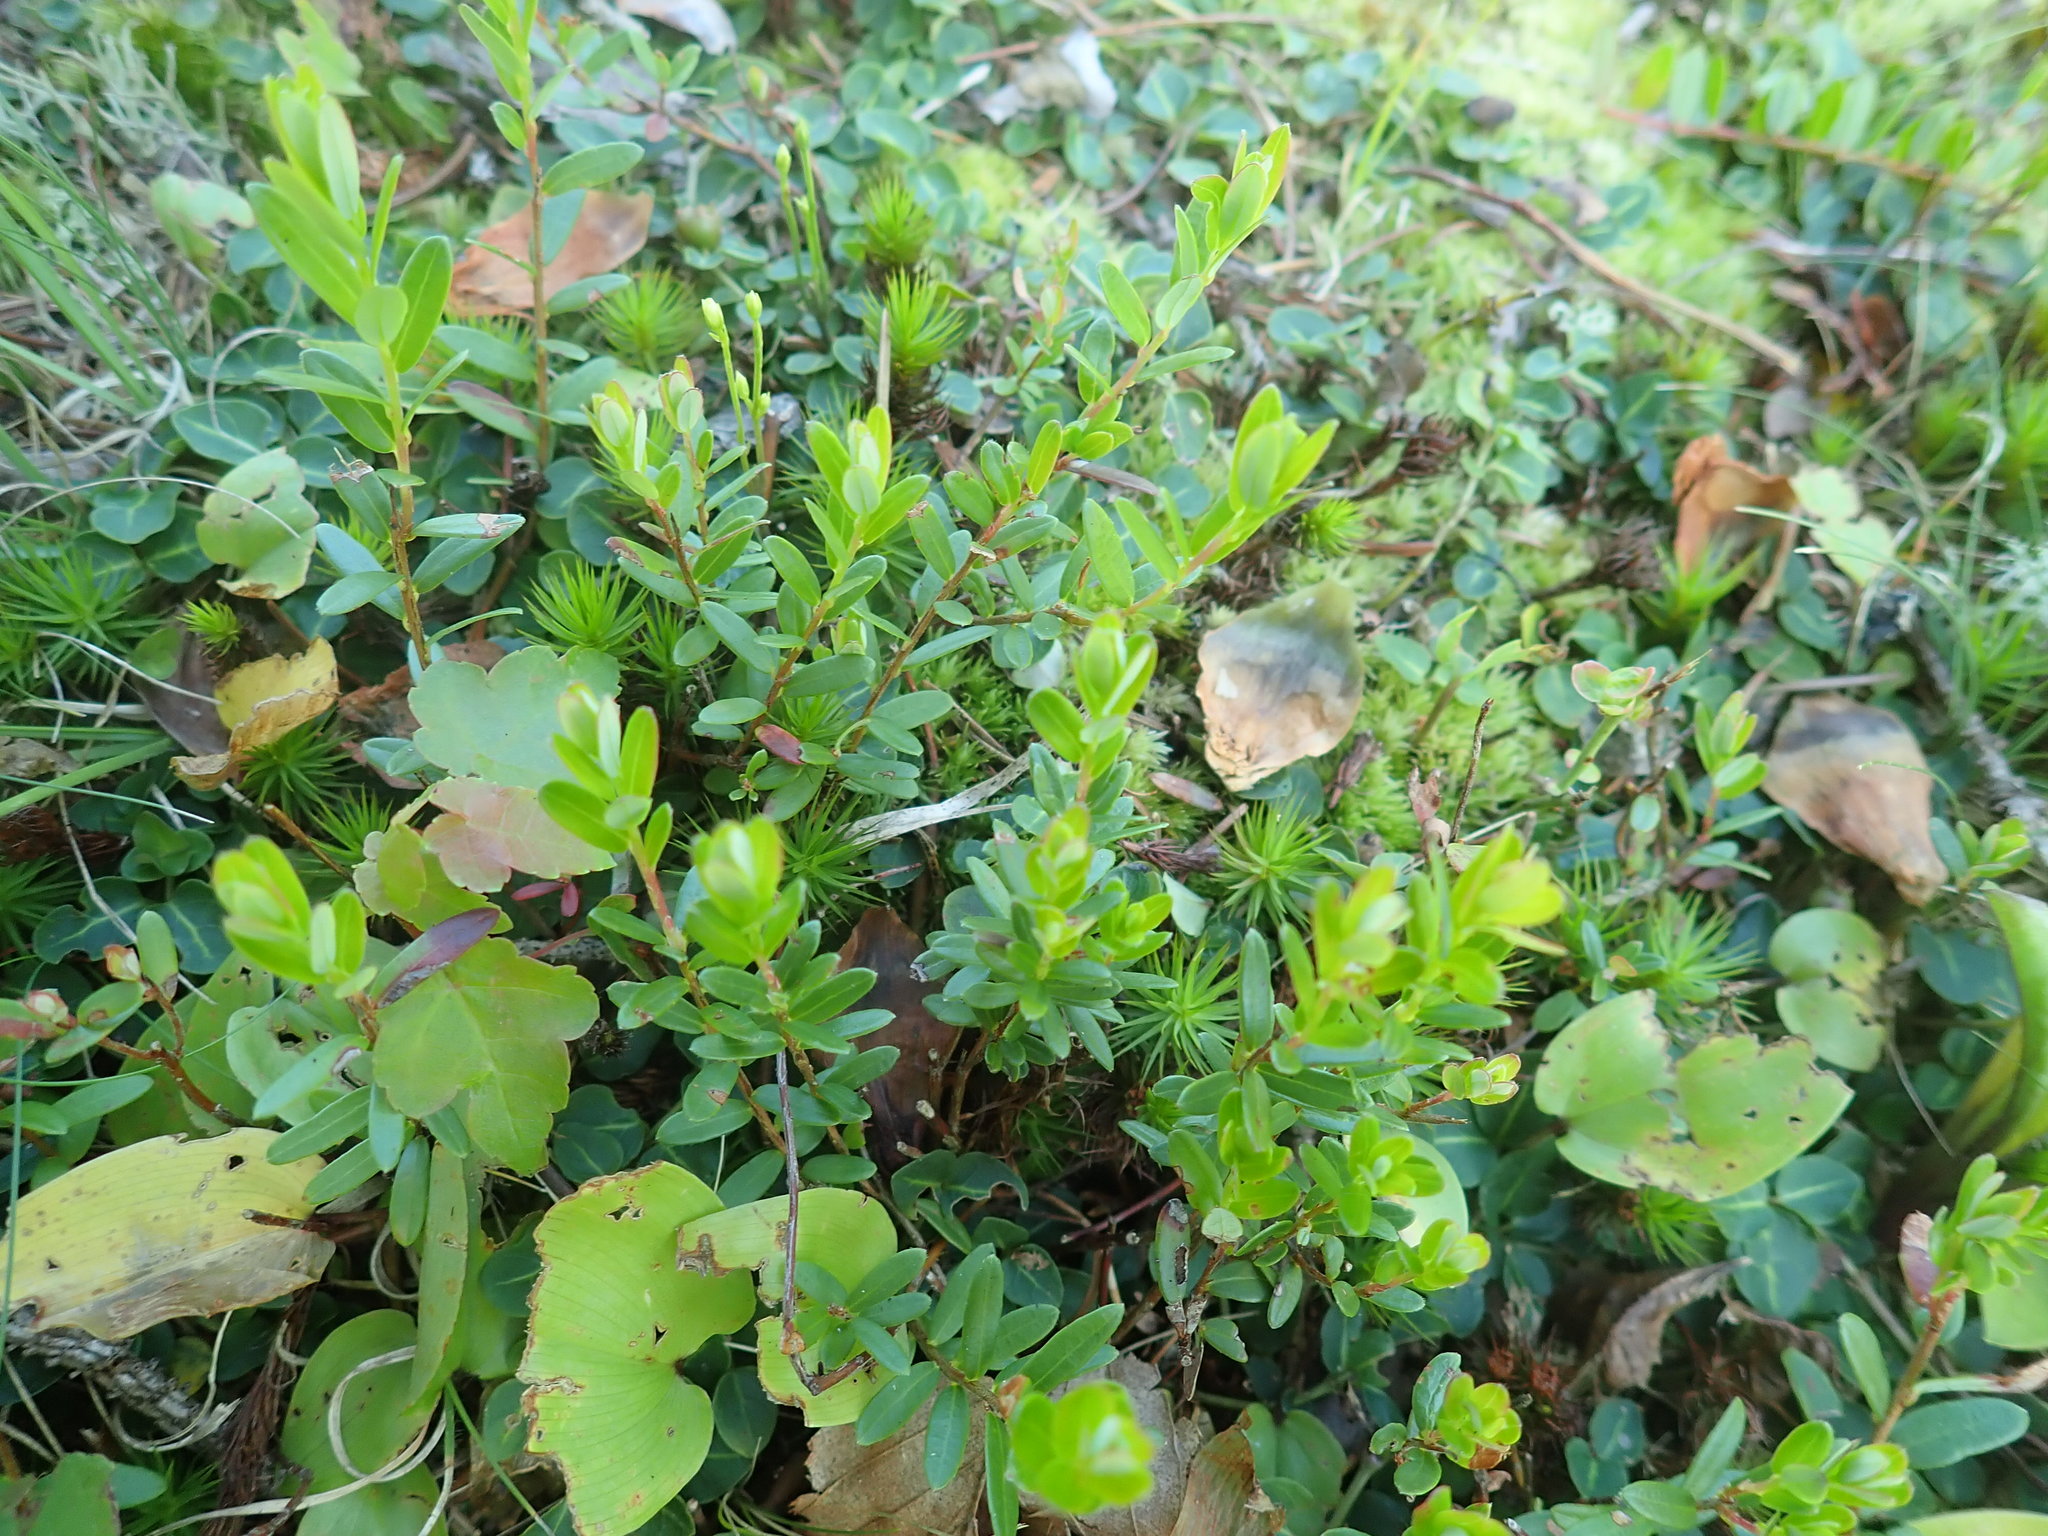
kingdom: Plantae
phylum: Tracheophyta
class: Magnoliopsida
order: Ericales
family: Ericaceae
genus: Vaccinium
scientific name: Vaccinium macrocarpon
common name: American cranberry
